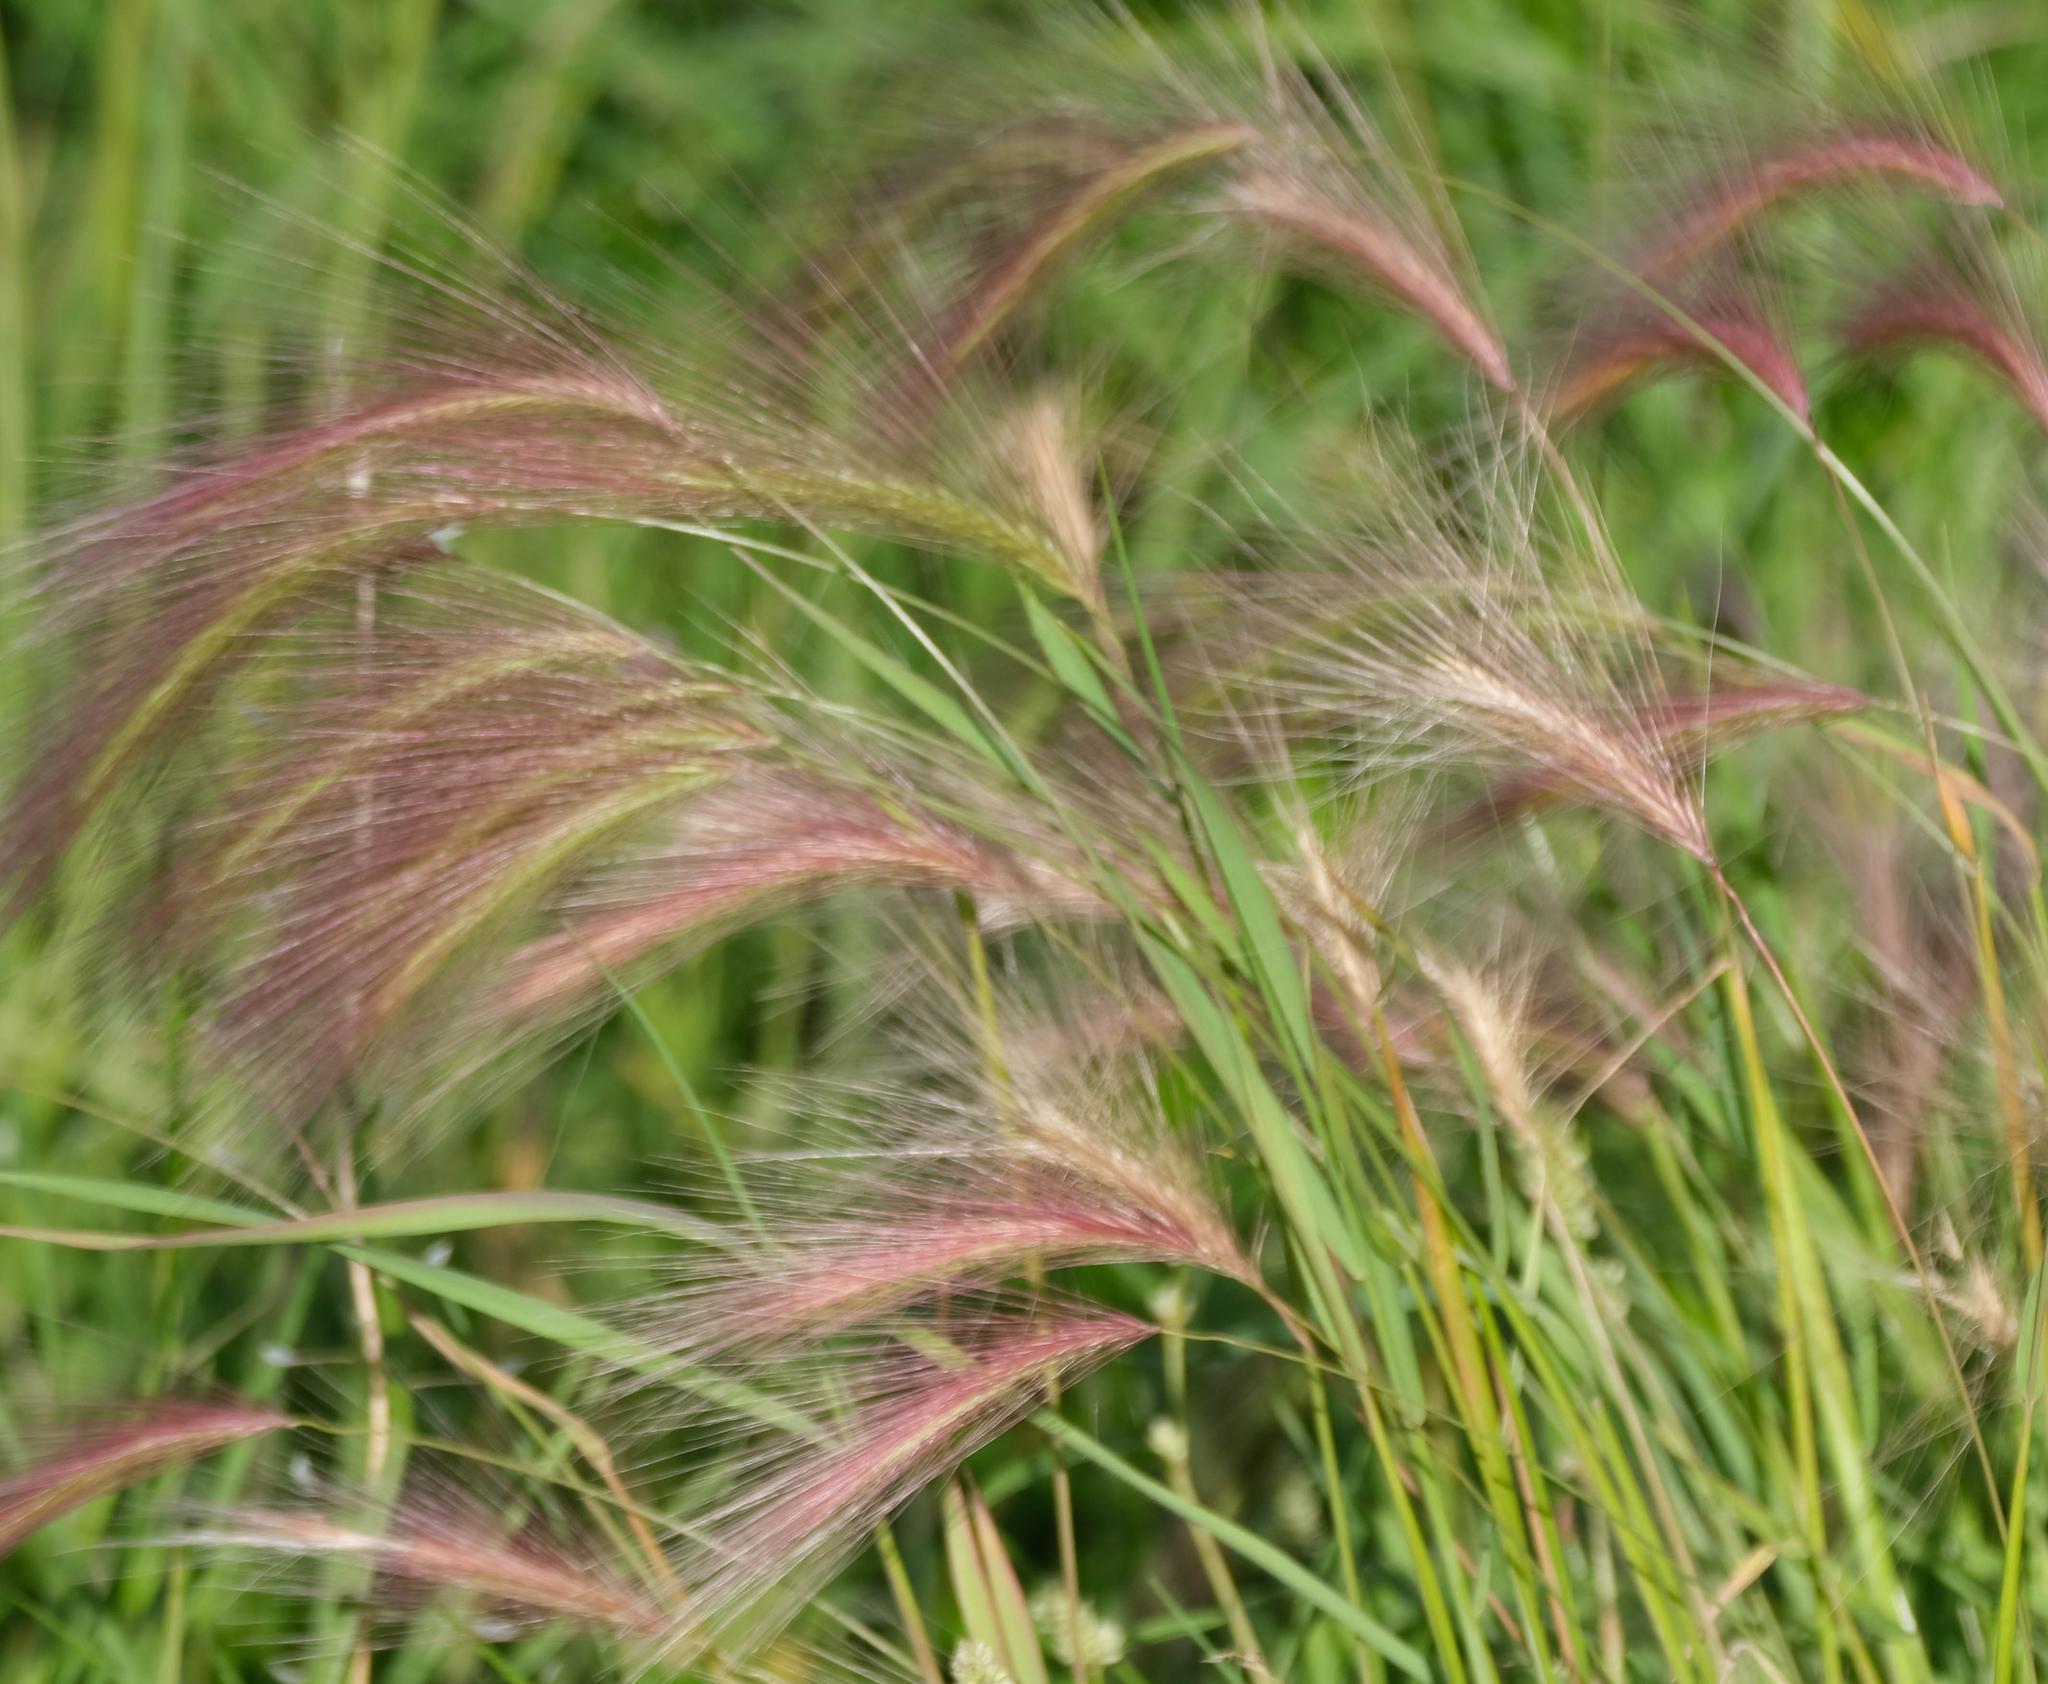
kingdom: Plantae
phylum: Tracheophyta
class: Liliopsida
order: Poales
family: Poaceae
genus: Hordeum
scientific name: Hordeum jubatum
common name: Foxtail barley
